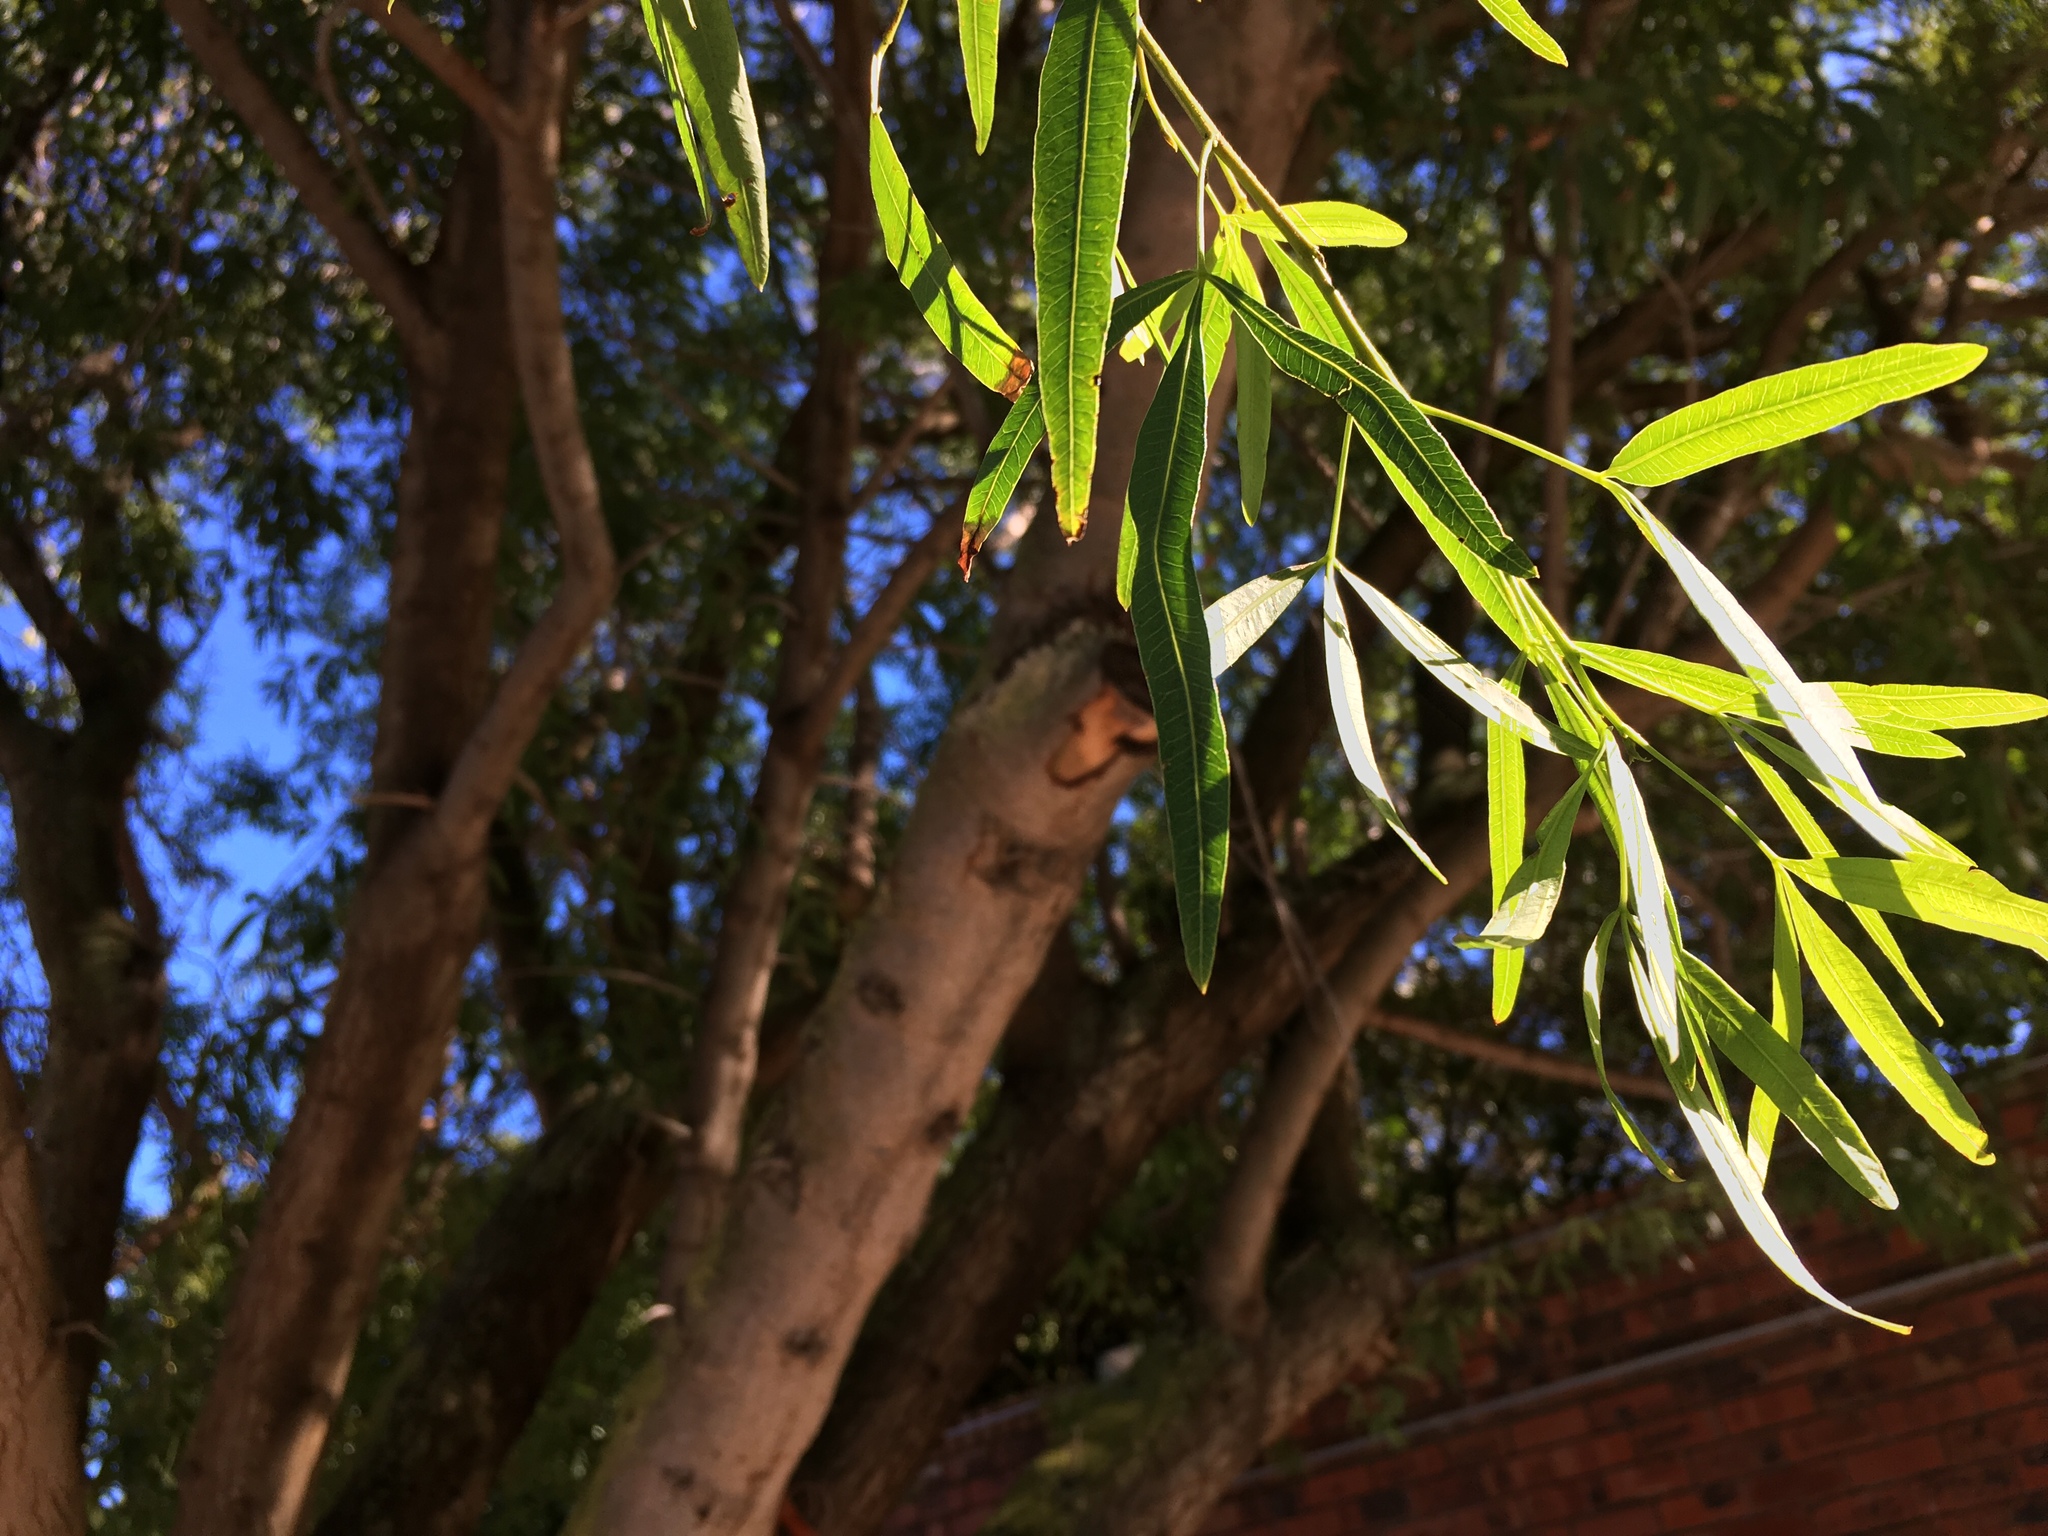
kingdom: Plantae
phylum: Tracheophyta
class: Magnoliopsida
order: Sapindales
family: Anacardiaceae
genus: Searsia
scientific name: Searsia pendulina
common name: White karee
